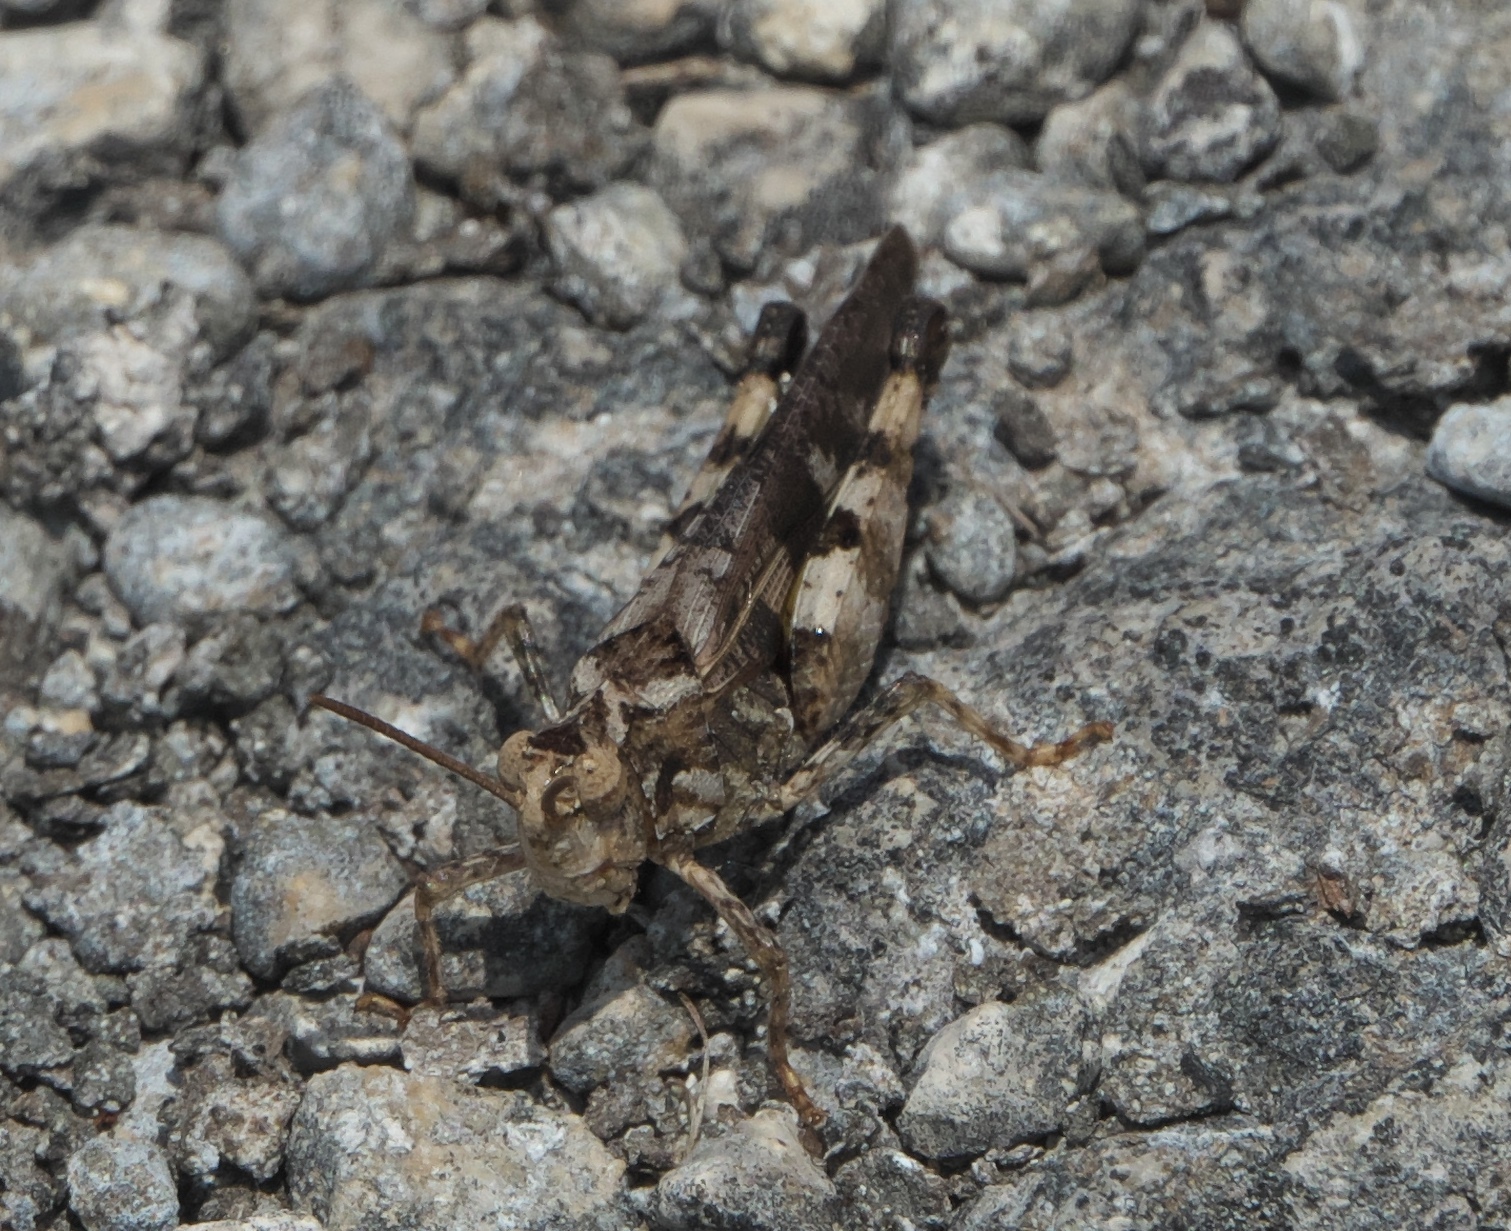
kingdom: Animalia
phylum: Arthropoda
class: Insecta
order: Orthoptera
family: Acrididae
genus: Chortophaga
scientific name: Chortophaga australior
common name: Southern green-striped grasshopper
